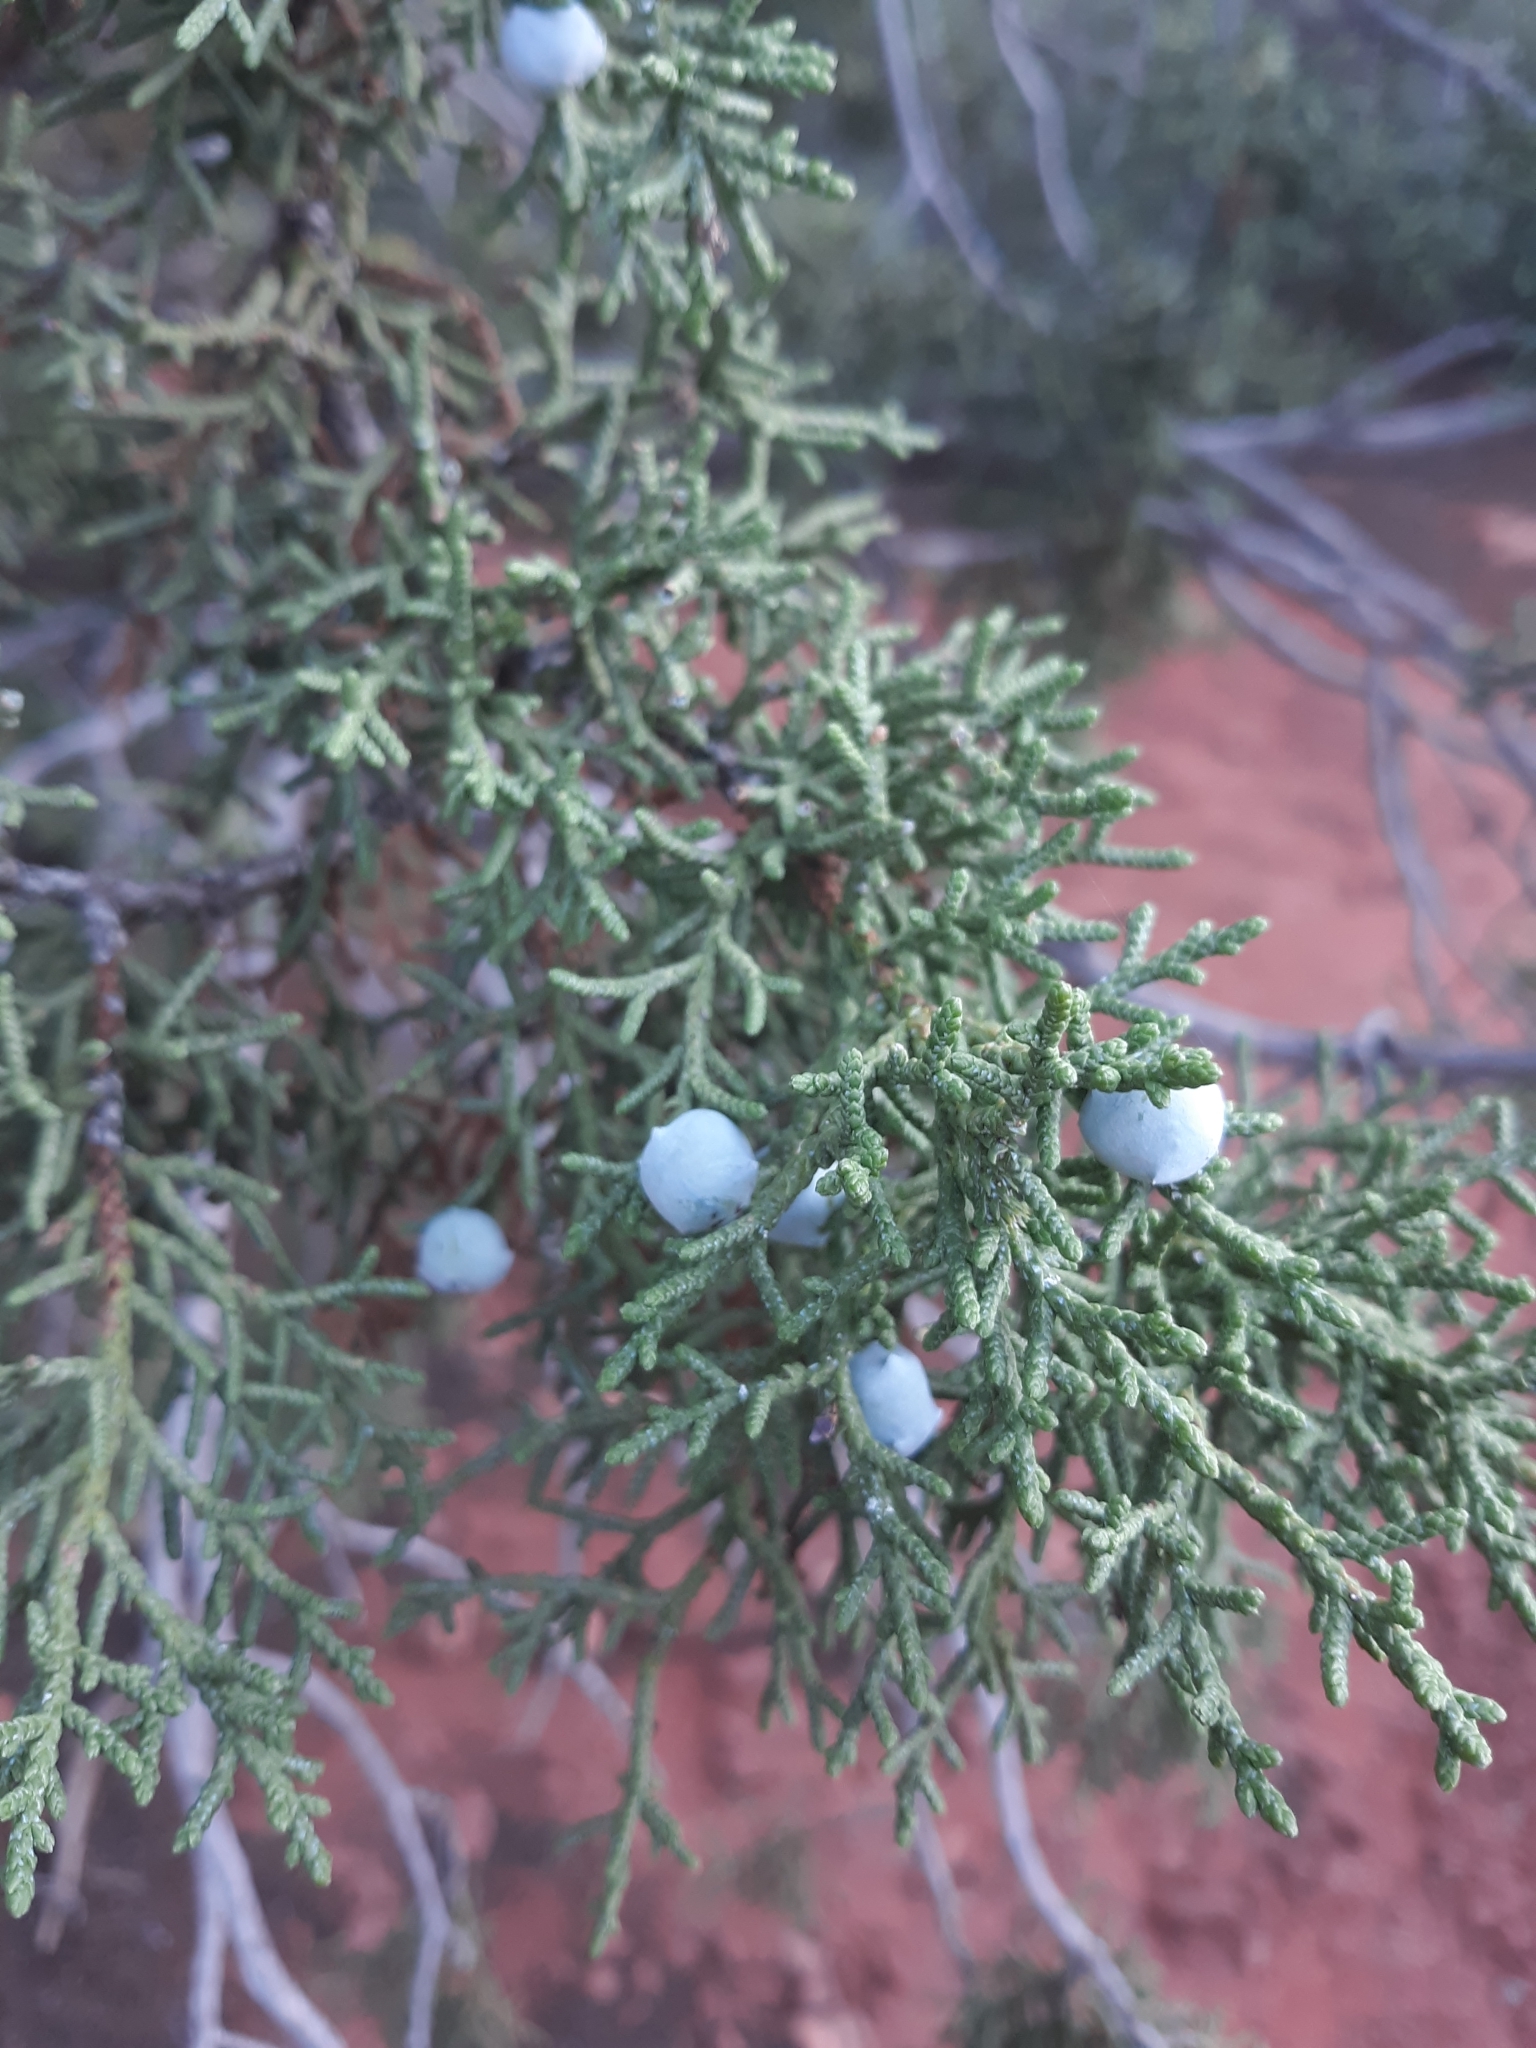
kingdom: Plantae
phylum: Tracheophyta
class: Pinopsida
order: Pinales
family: Cupressaceae
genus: Juniperus
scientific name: Juniperus osteosperma
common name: Utah juniper
